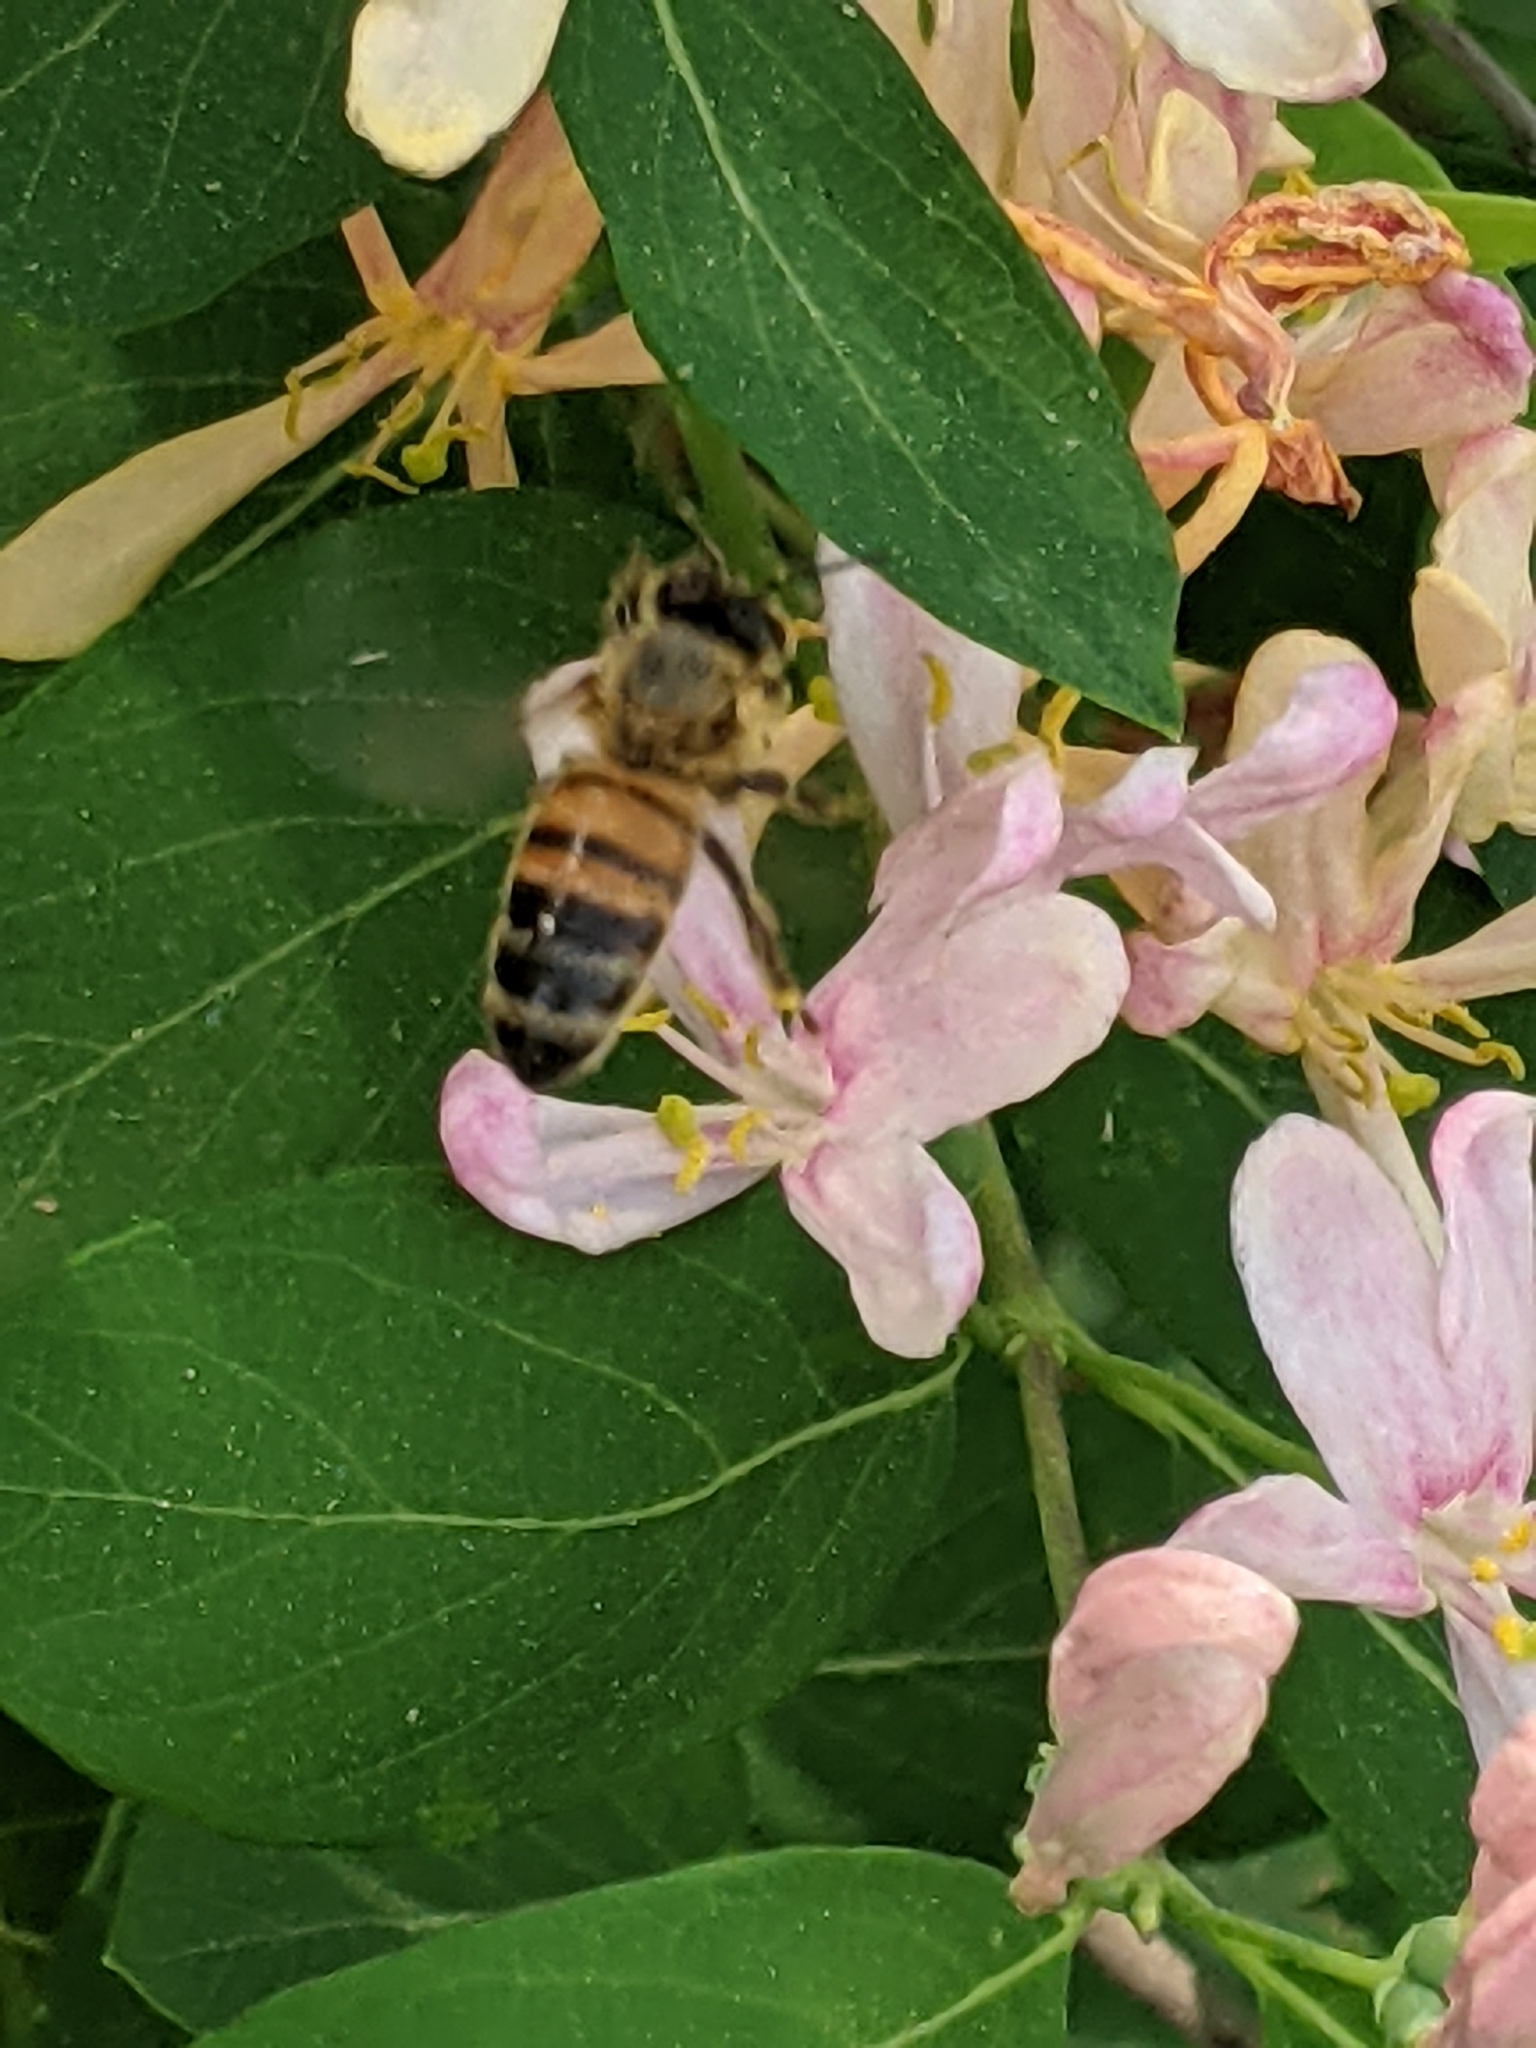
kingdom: Animalia
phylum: Arthropoda
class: Insecta
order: Hymenoptera
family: Apidae
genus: Apis
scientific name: Apis mellifera
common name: Honey bee
